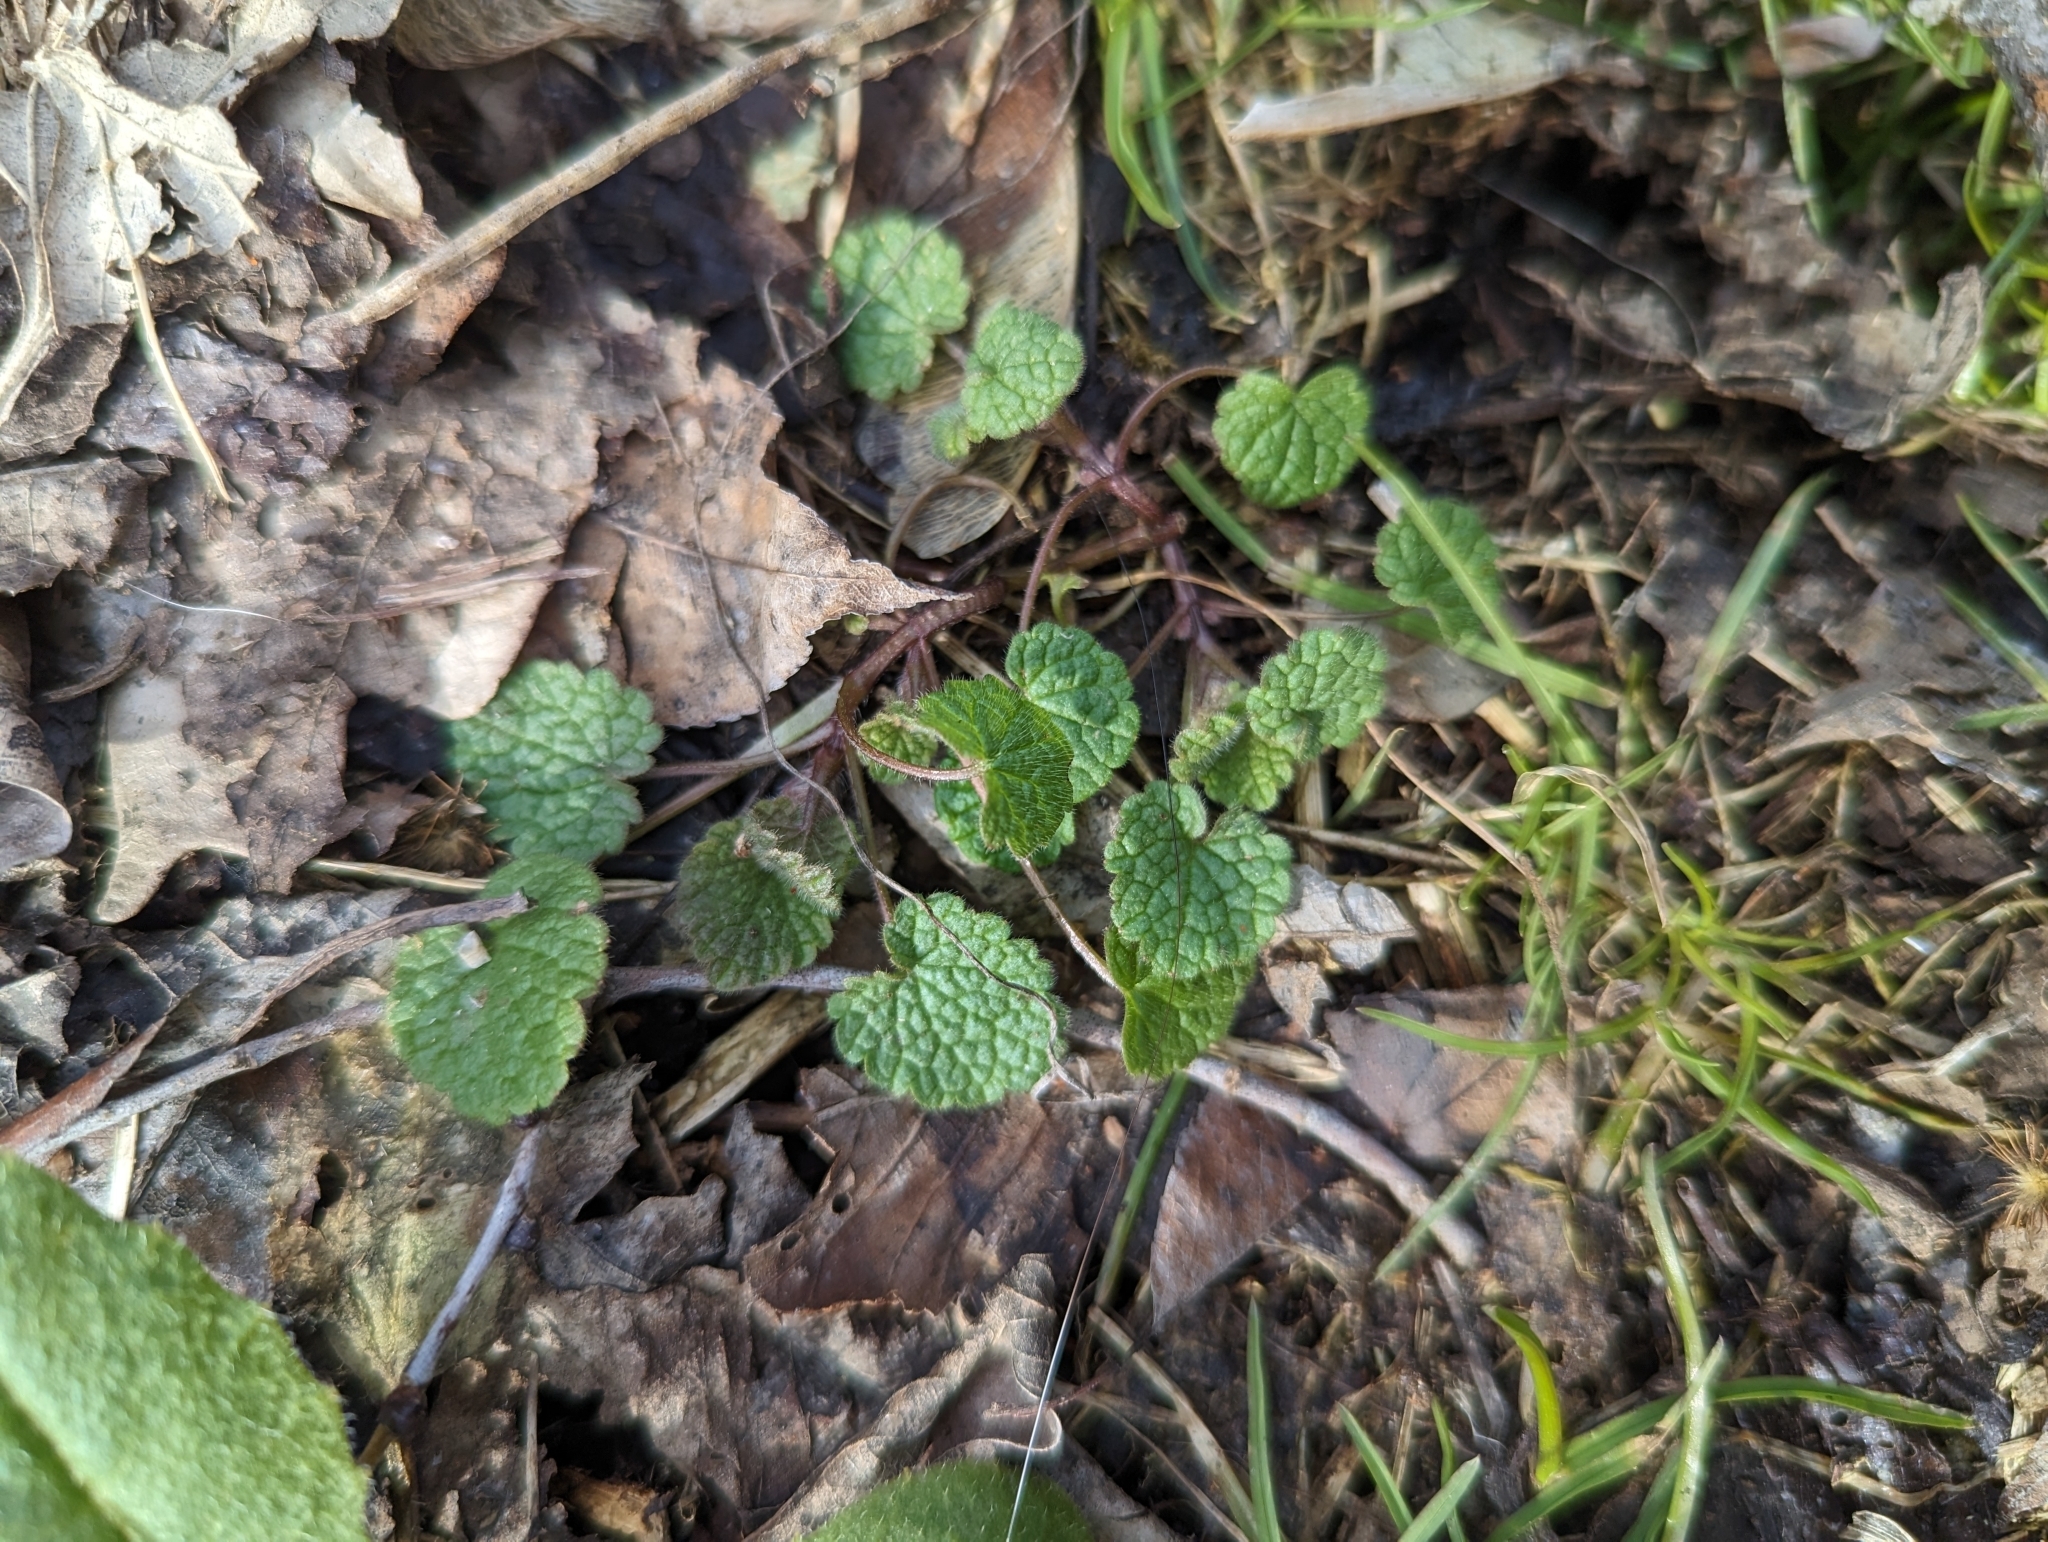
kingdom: Plantae
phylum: Tracheophyta
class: Magnoliopsida
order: Lamiales
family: Lamiaceae
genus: Lamium
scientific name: Lamium purpureum
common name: Red dead-nettle
